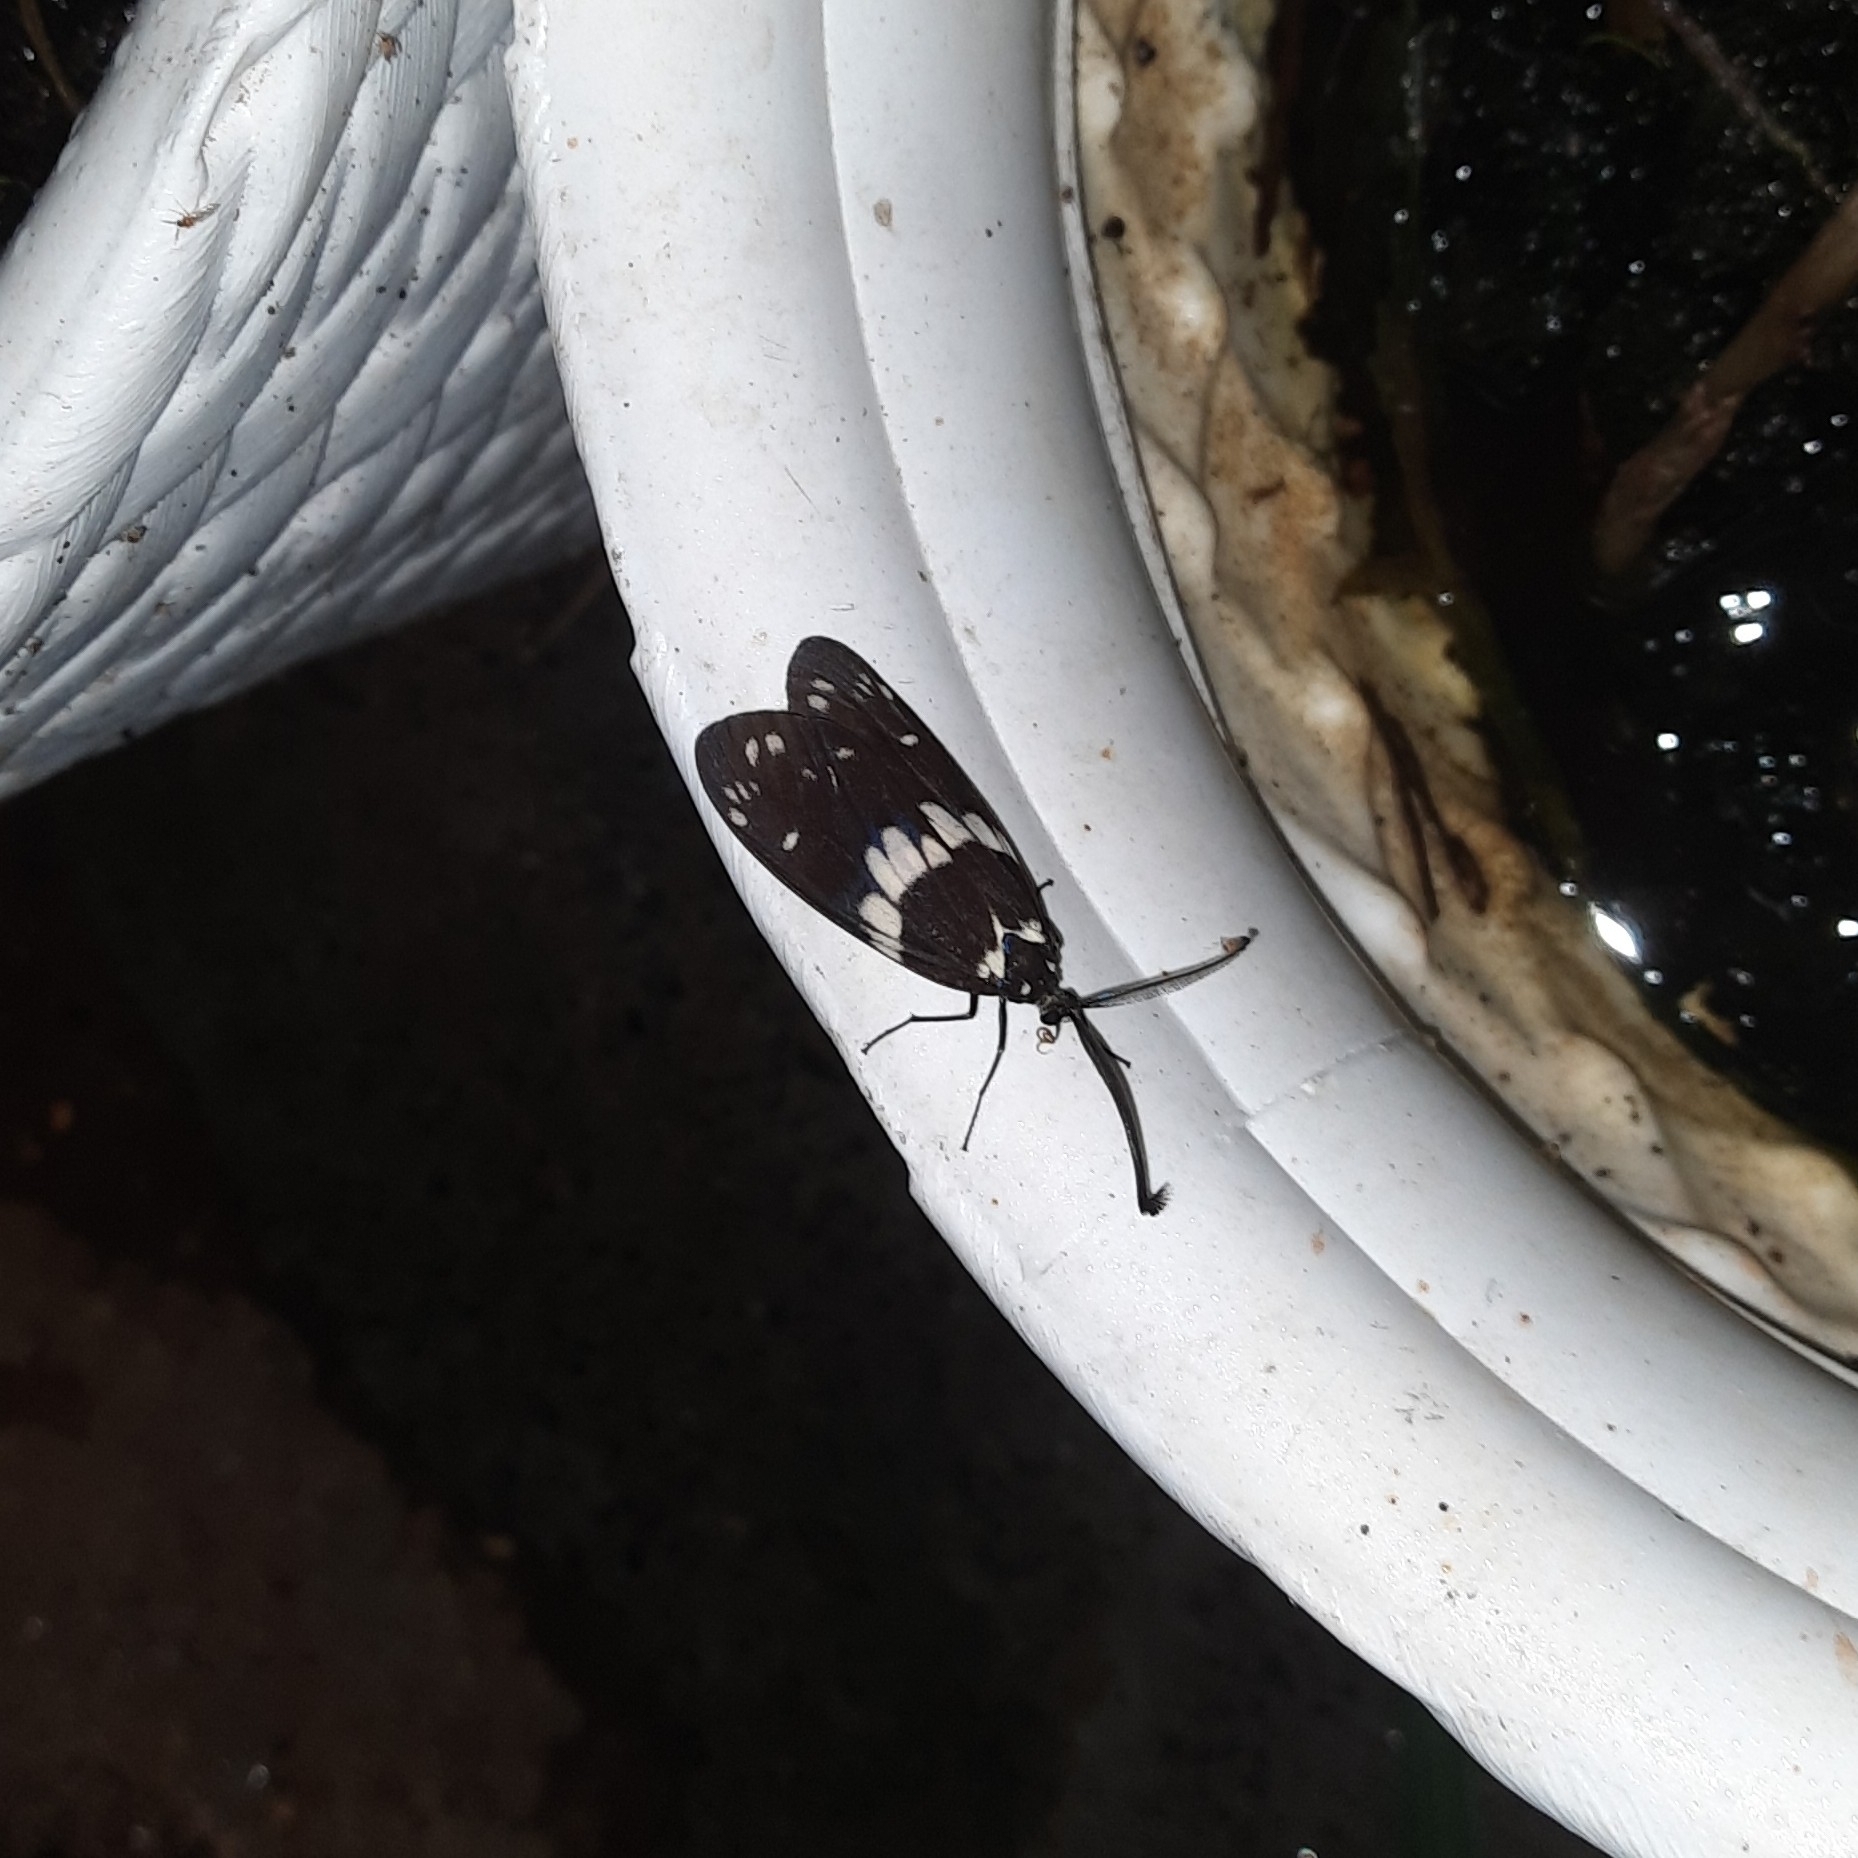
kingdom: Animalia
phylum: Arthropoda
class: Insecta
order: Lepidoptera
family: Zygaenidae
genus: Eterusia
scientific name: Eterusia aedea
